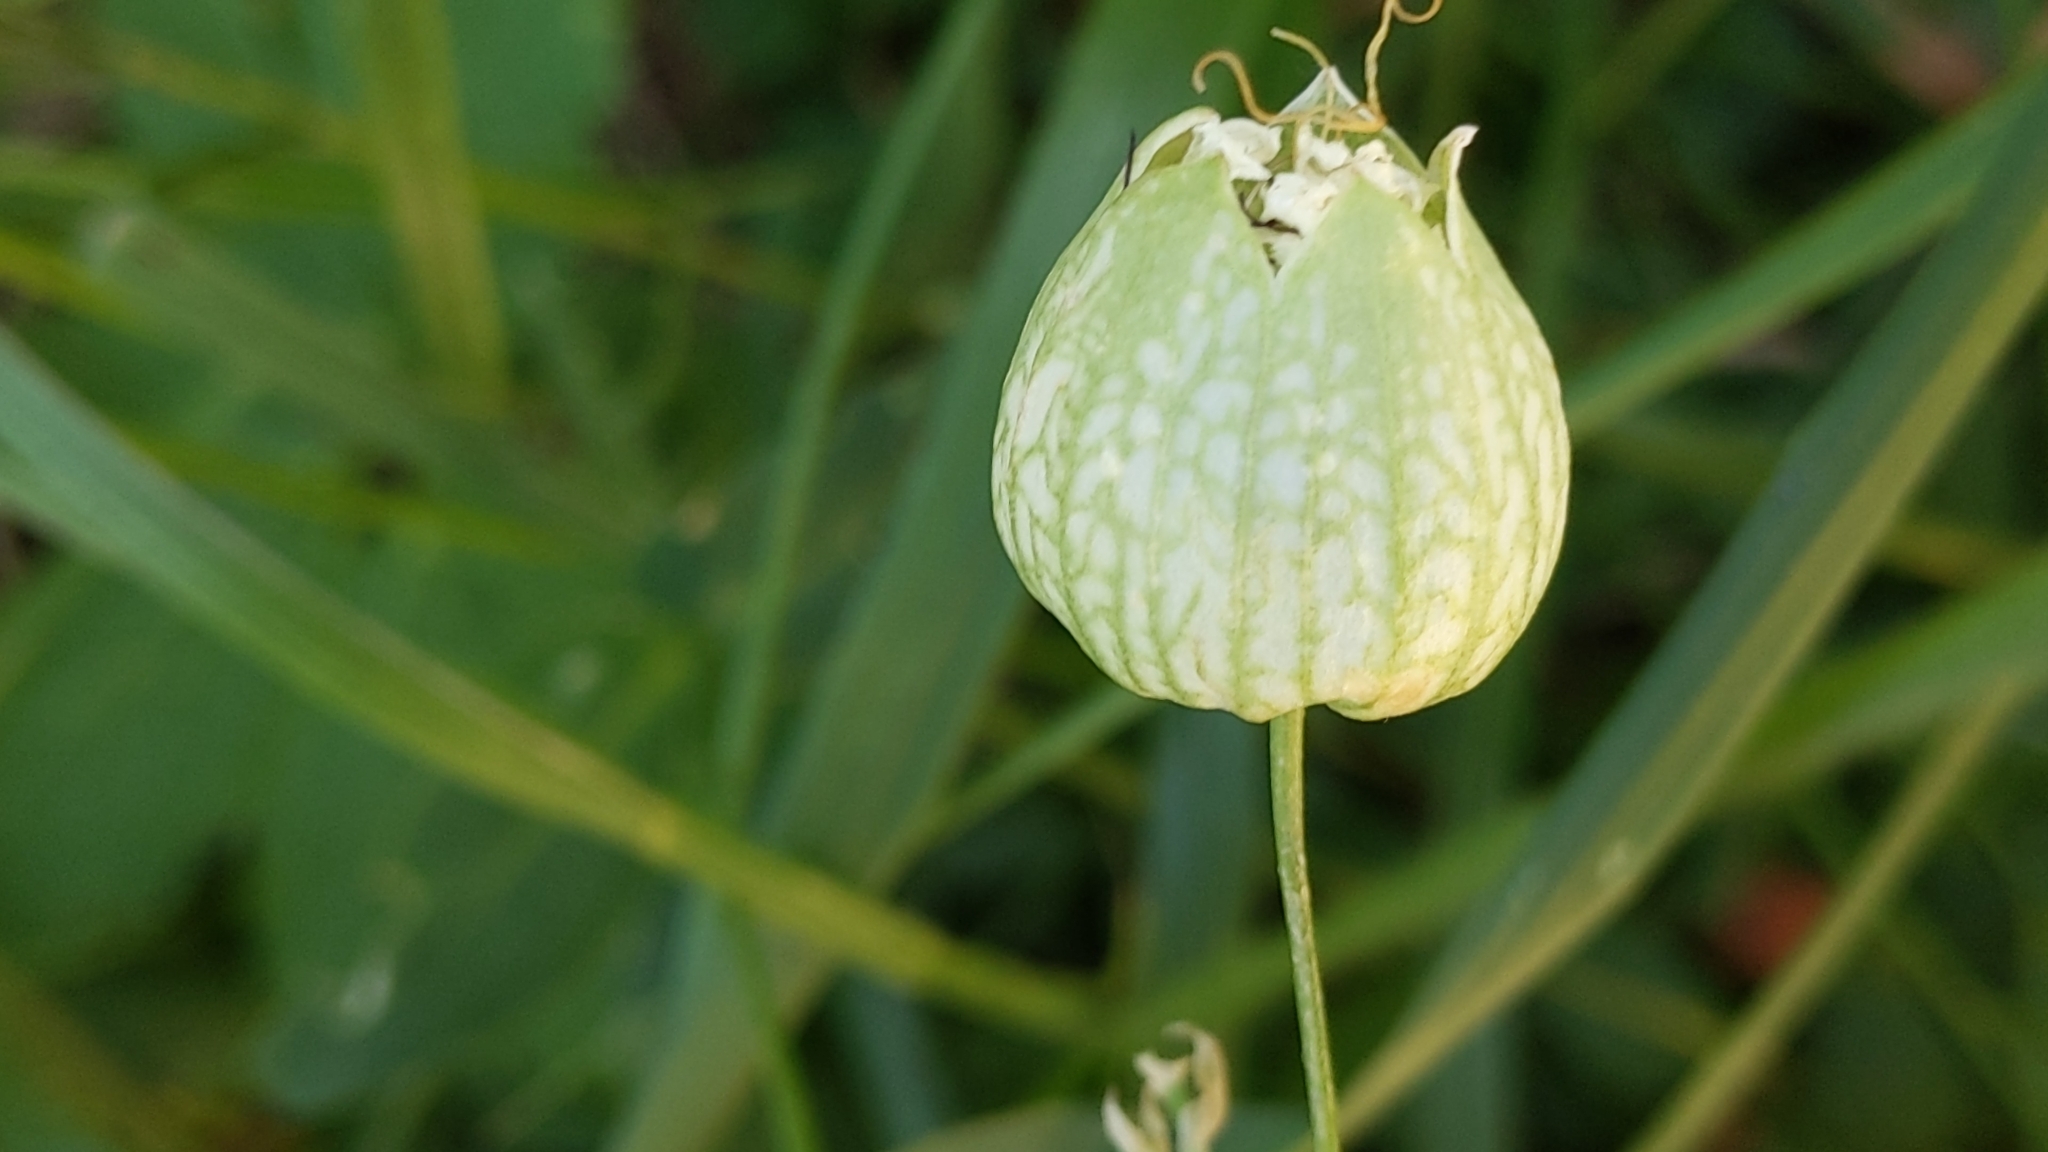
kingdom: Plantae
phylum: Tracheophyta
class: Magnoliopsida
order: Caryophyllales
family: Caryophyllaceae
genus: Silene
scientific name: Silene vulgaris
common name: Bladder campion
